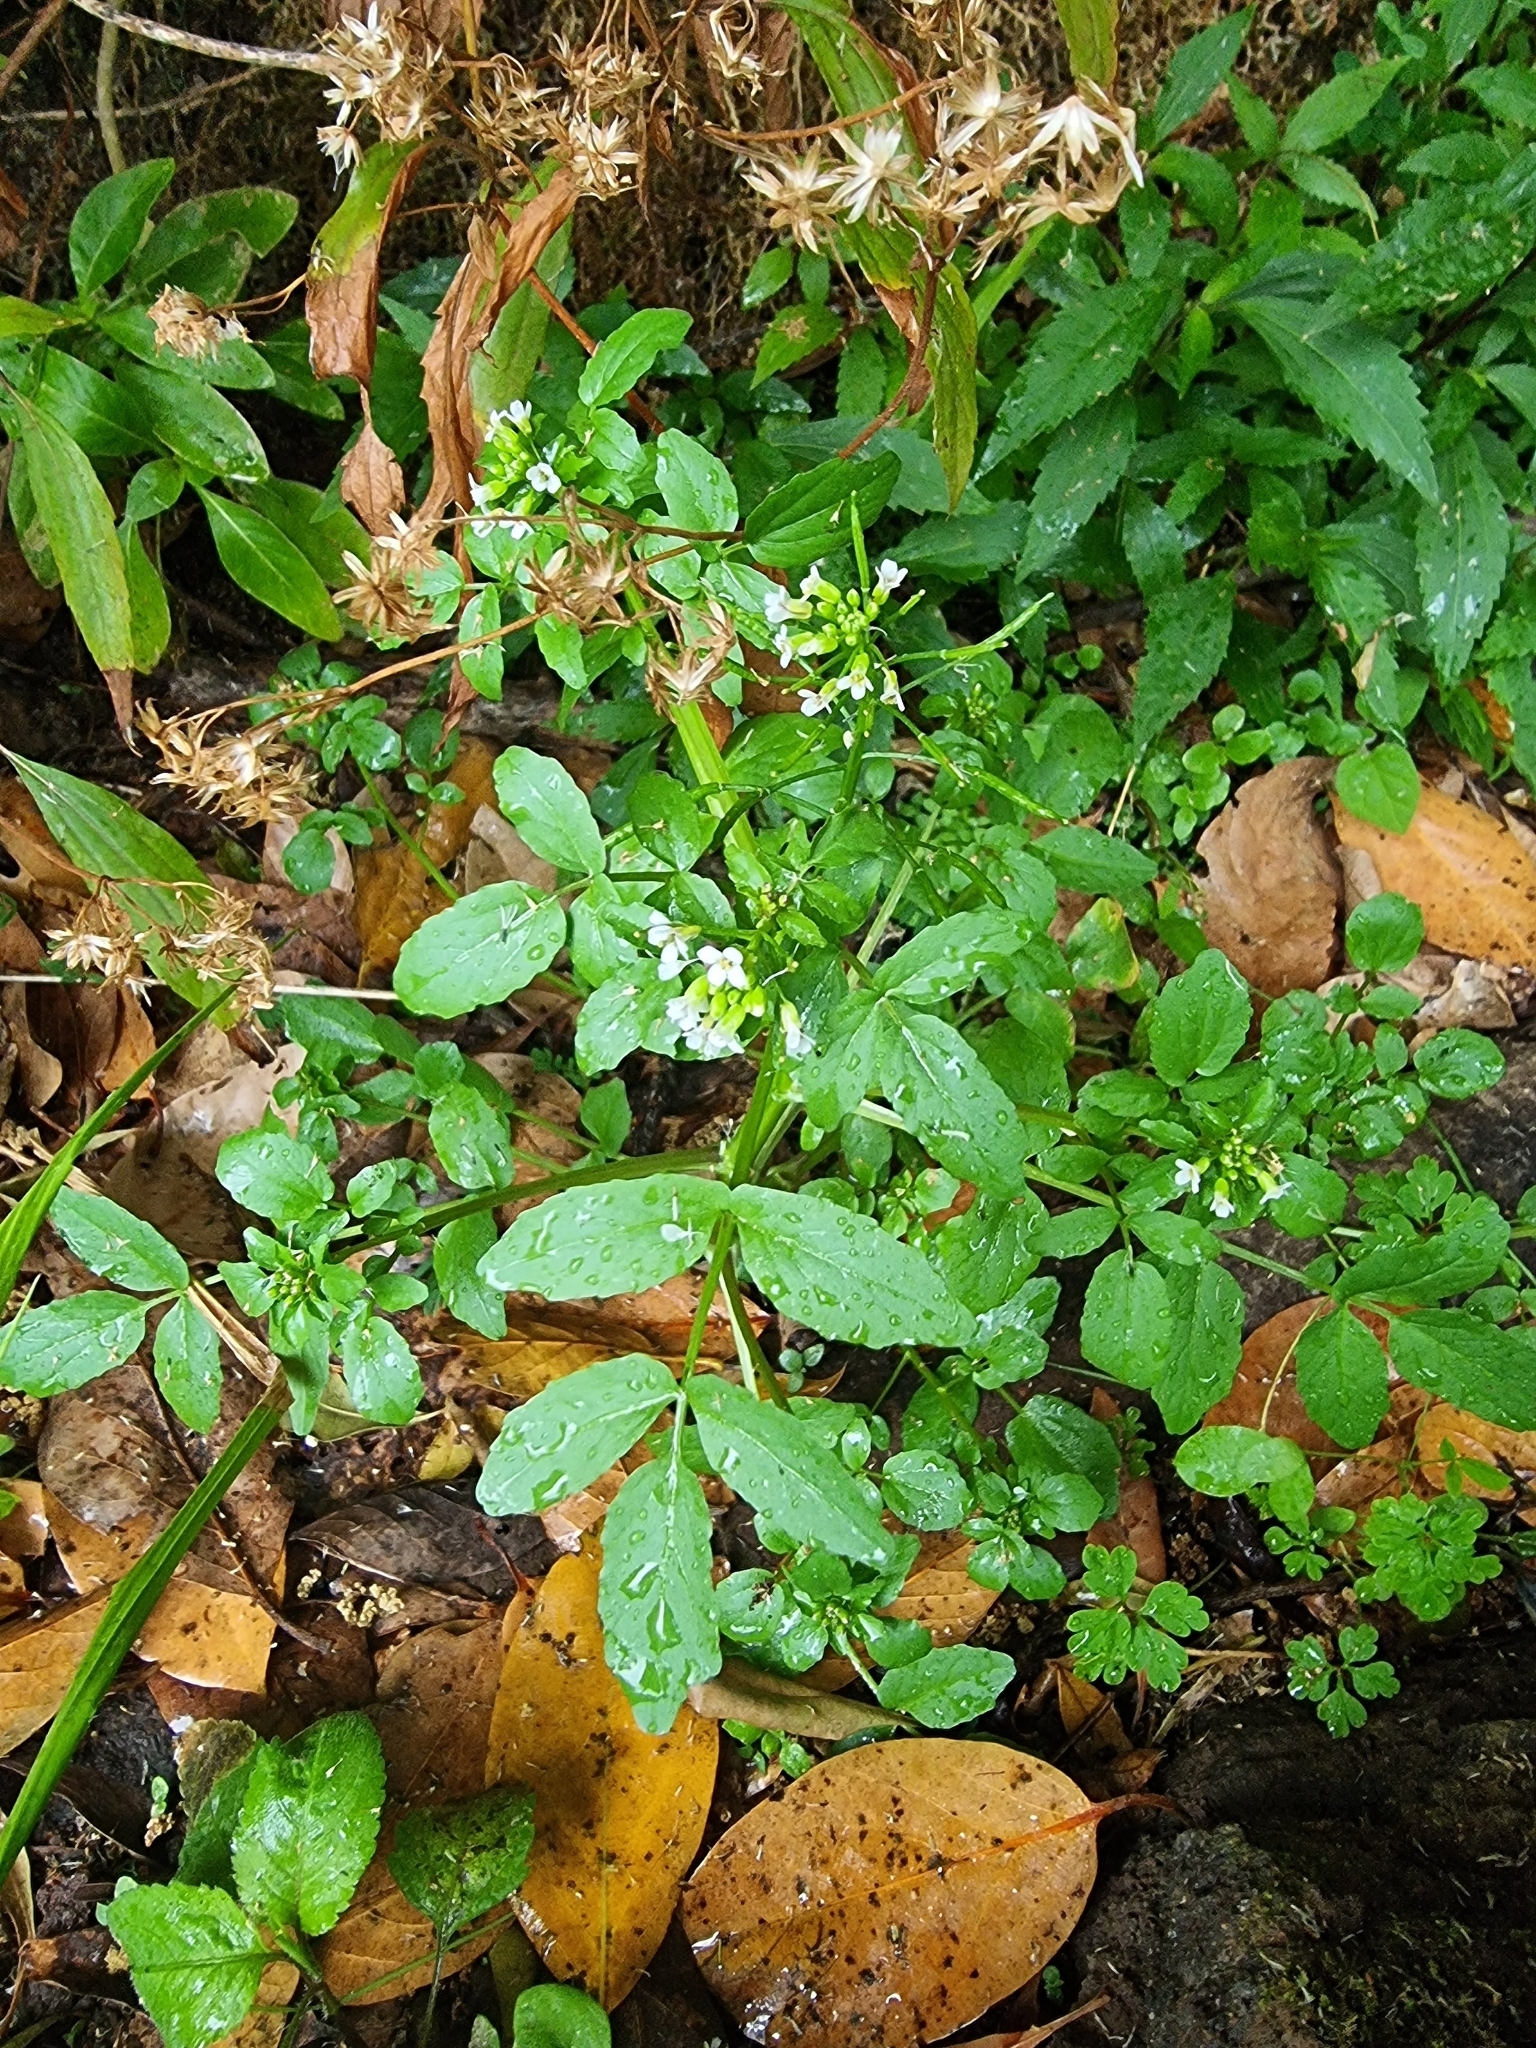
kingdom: Plantae
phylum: Tracheophyta
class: Magnoliopsida
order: Brassicales
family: Brassicaceae
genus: Nasturtium
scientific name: Nasturtium sterile
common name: Yellowcress
